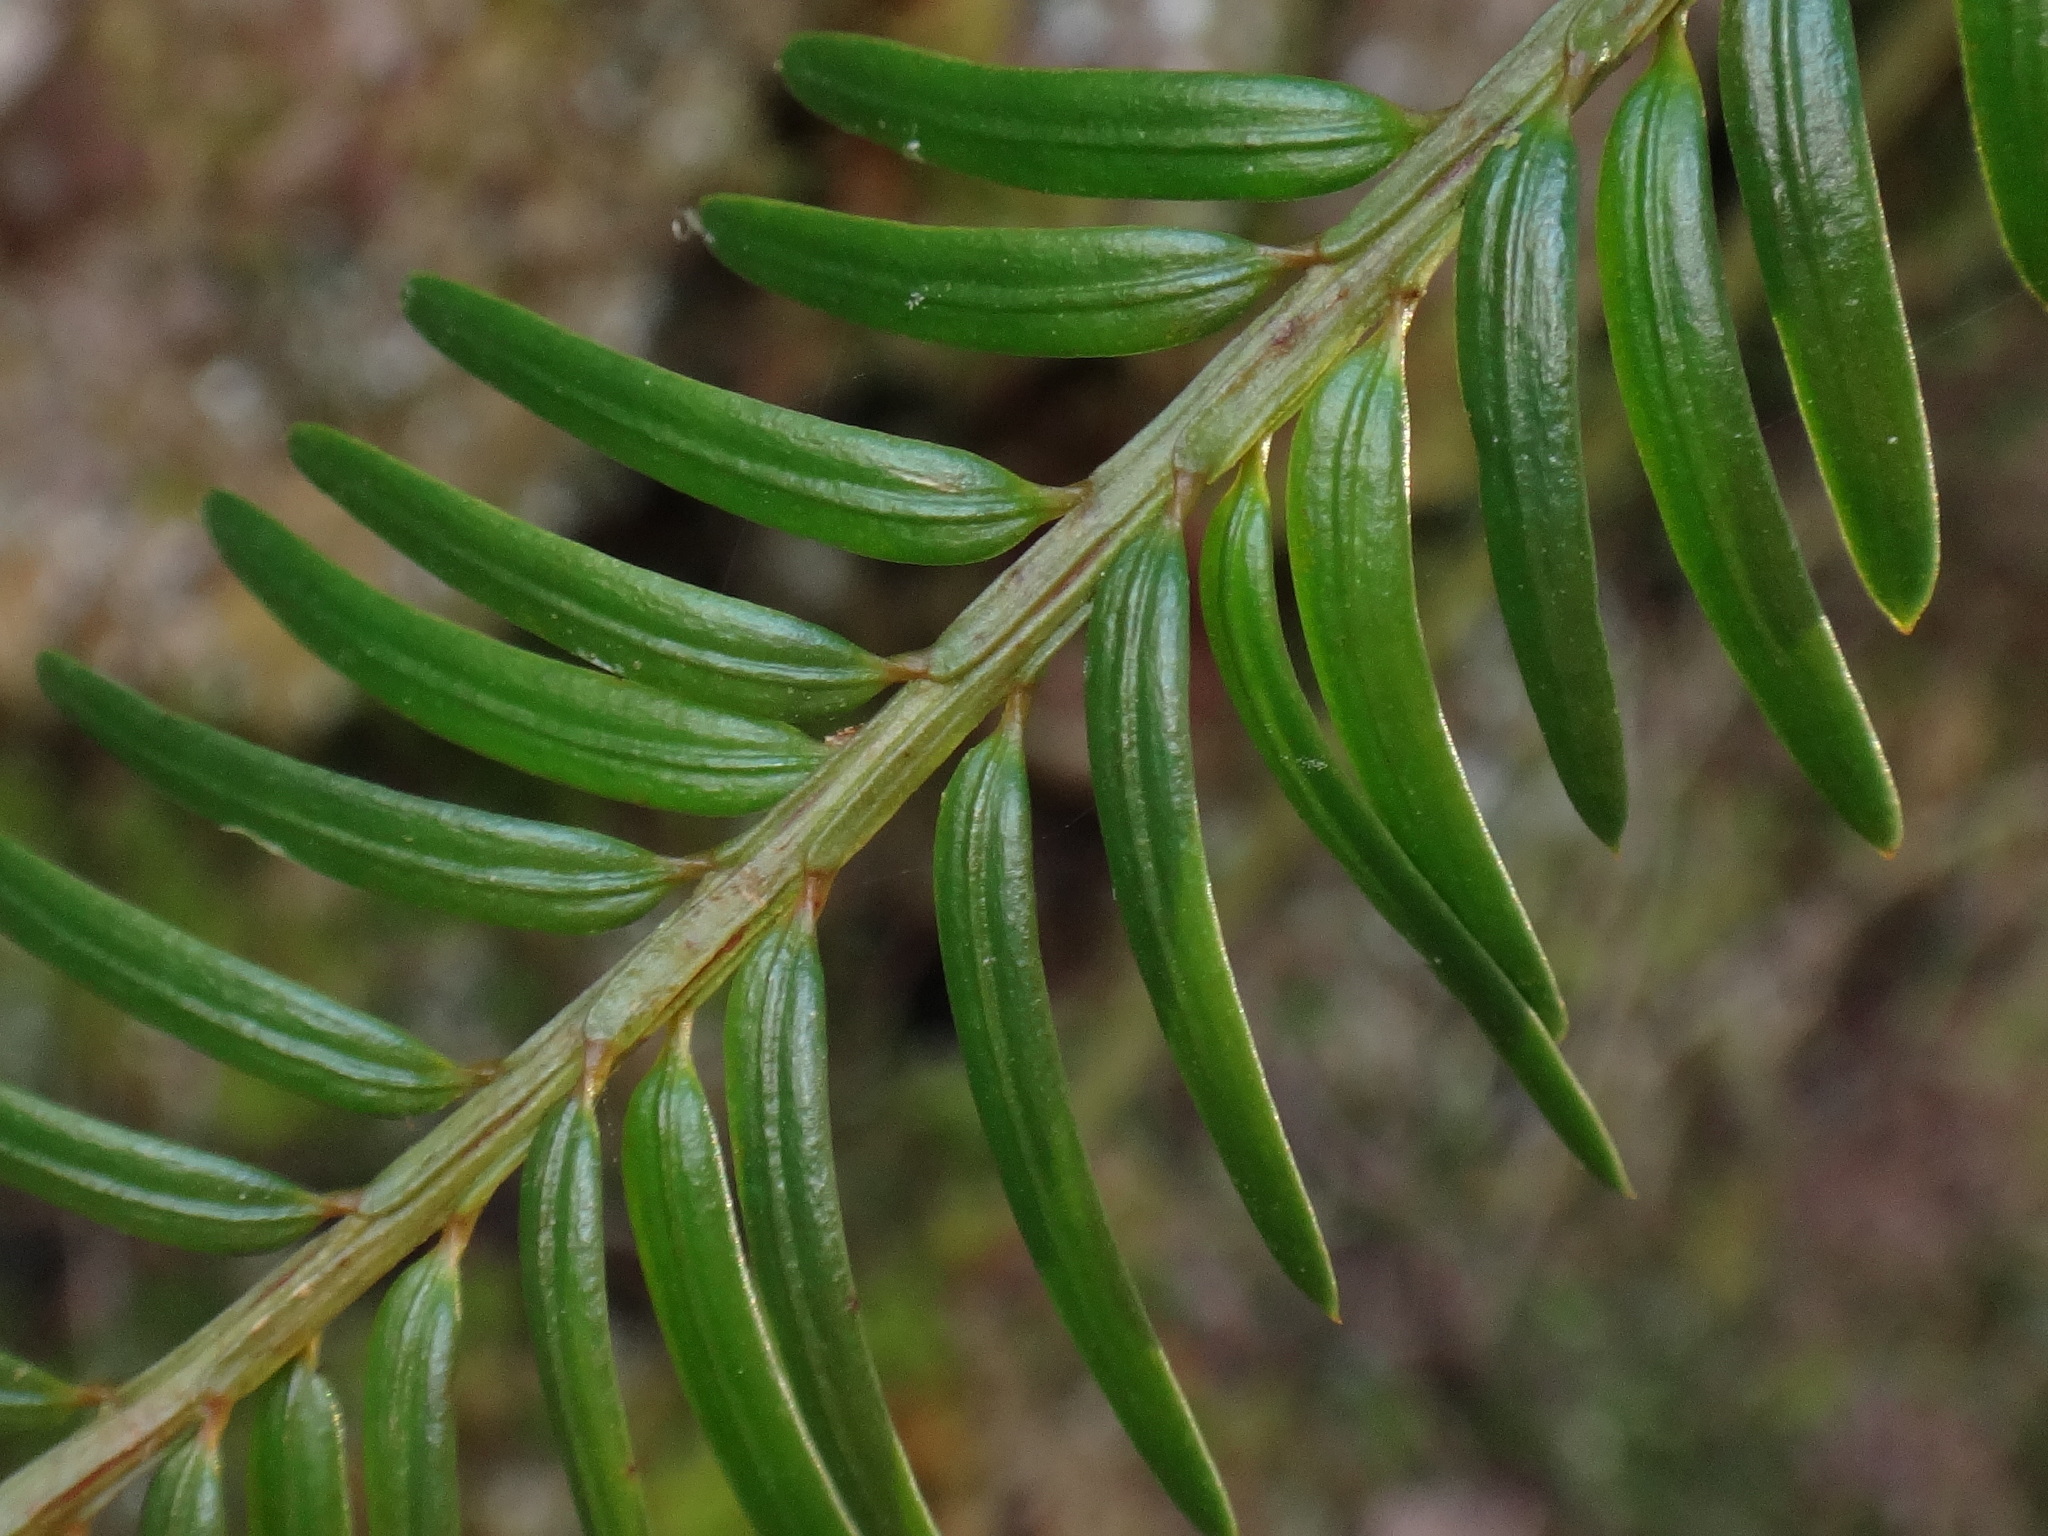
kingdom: Plantae
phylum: Tracheophyta
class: Pinopsida
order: Pinales
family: Taxaceae
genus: Taxus
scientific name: Taxus baccata
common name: Yew
